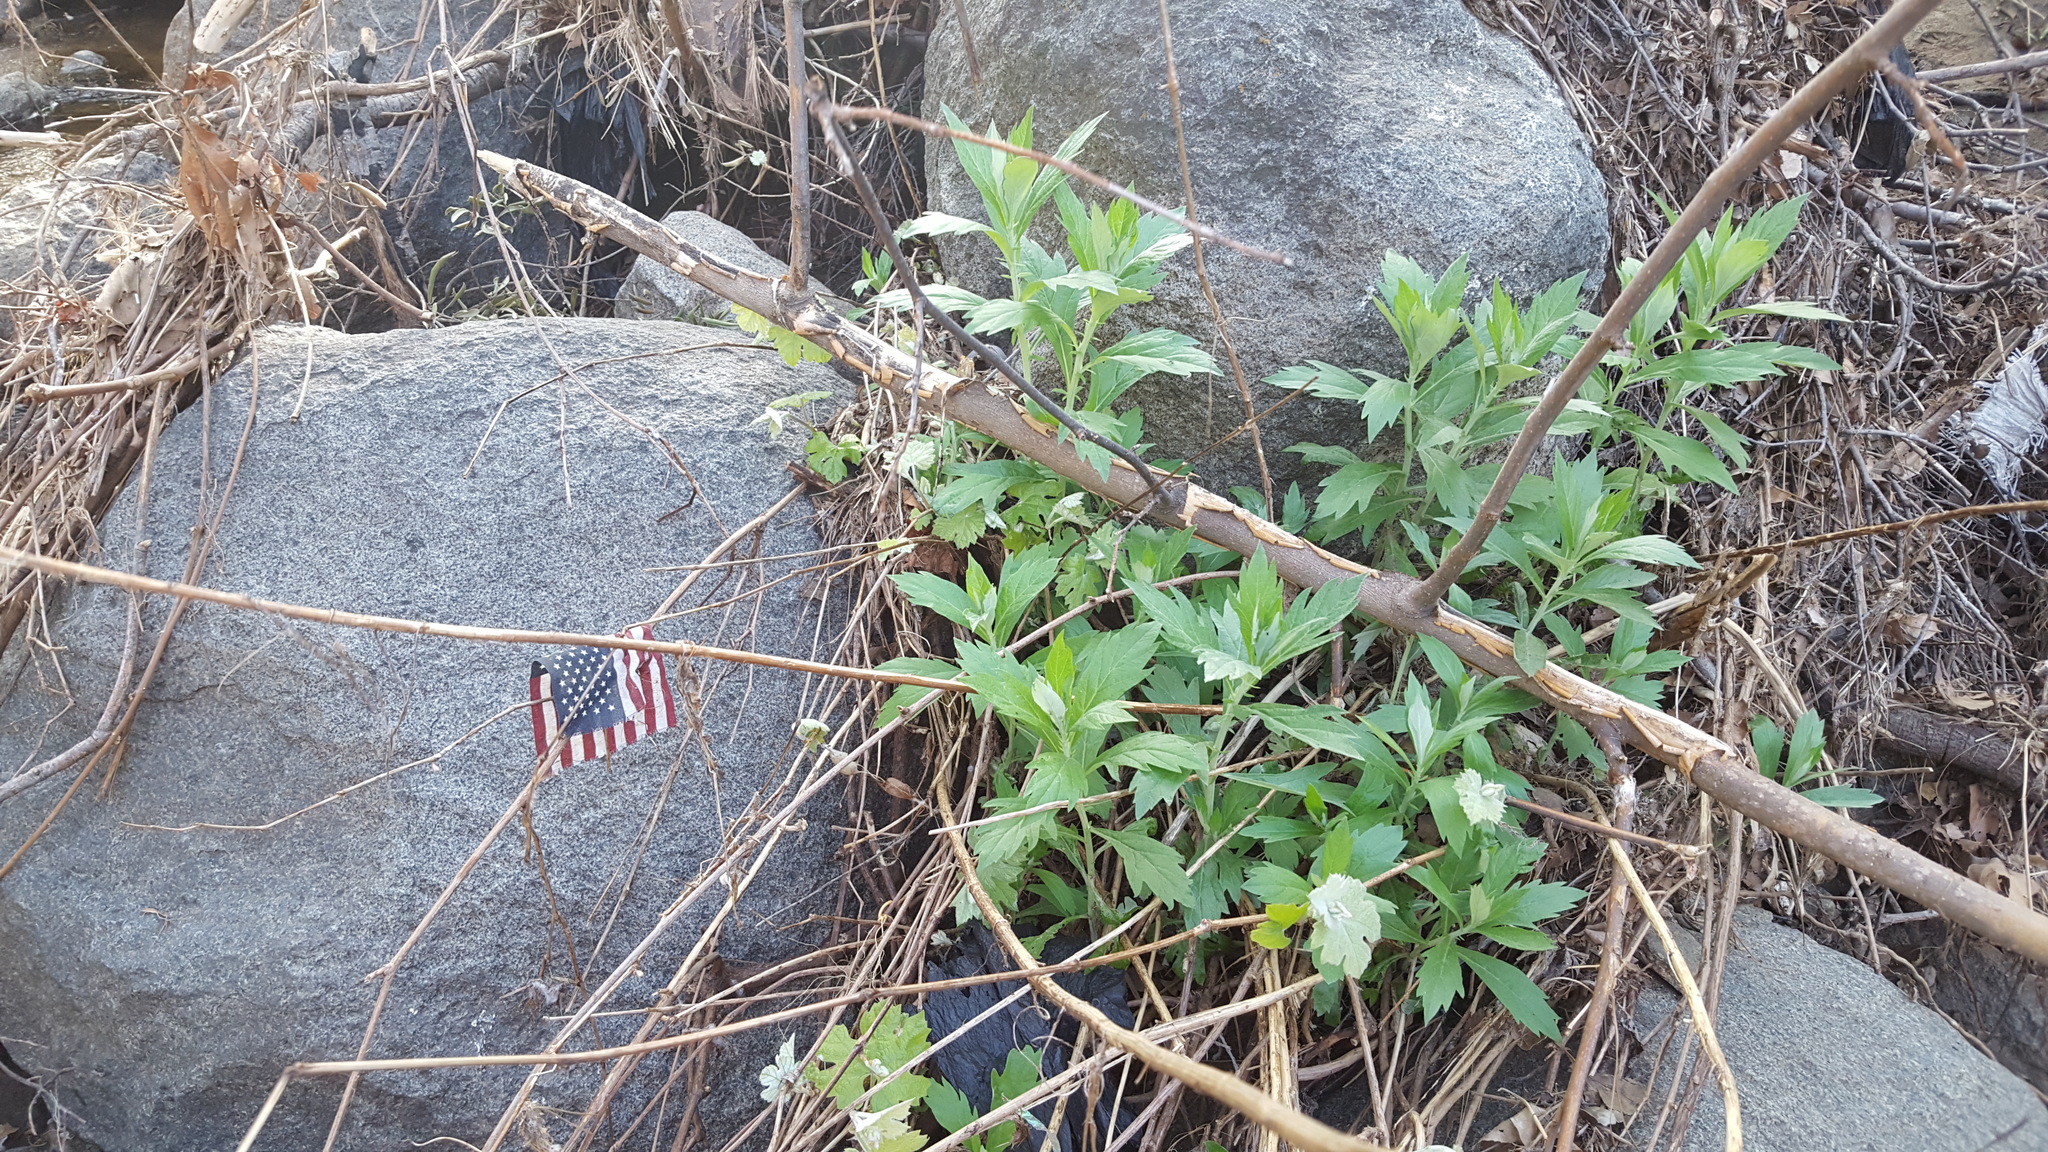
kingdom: Plantae
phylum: Tracheophyta
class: Magnoliopsida
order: Asterales
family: Asteraceae
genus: Artemisia
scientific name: Artemisia douglasiana
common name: Northwest mugwort
